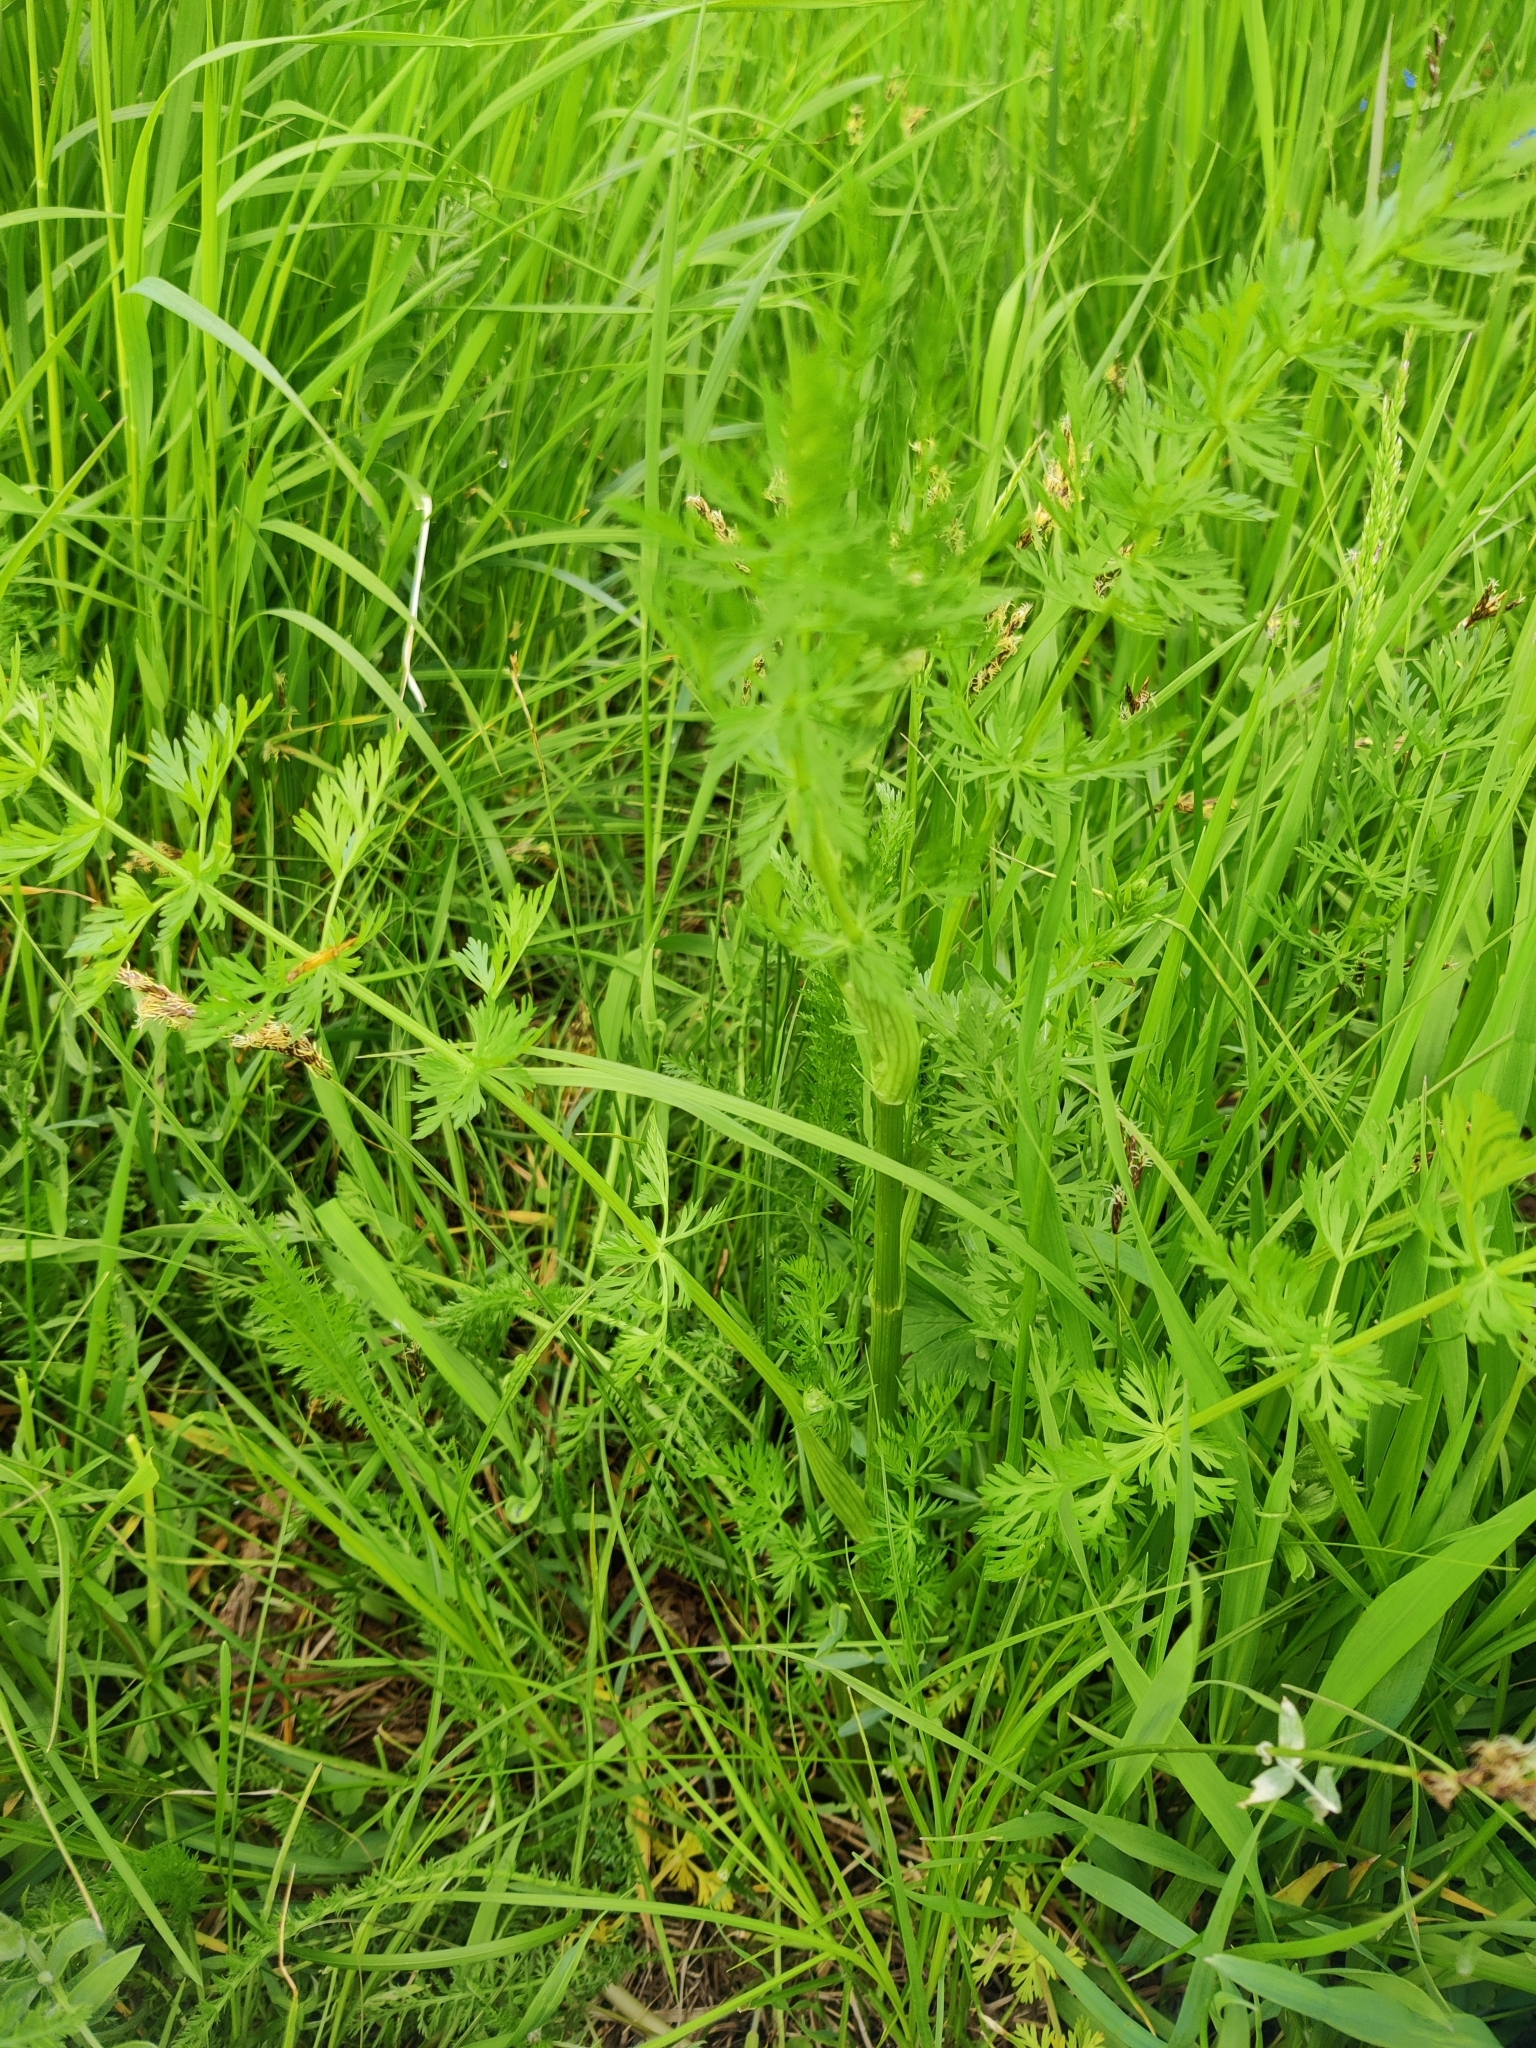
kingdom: Plantae
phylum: Tracheophyta
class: Magnoliopsida
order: Apiales
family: Apiaceae
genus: Carum
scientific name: Carum carvi
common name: Caraway
